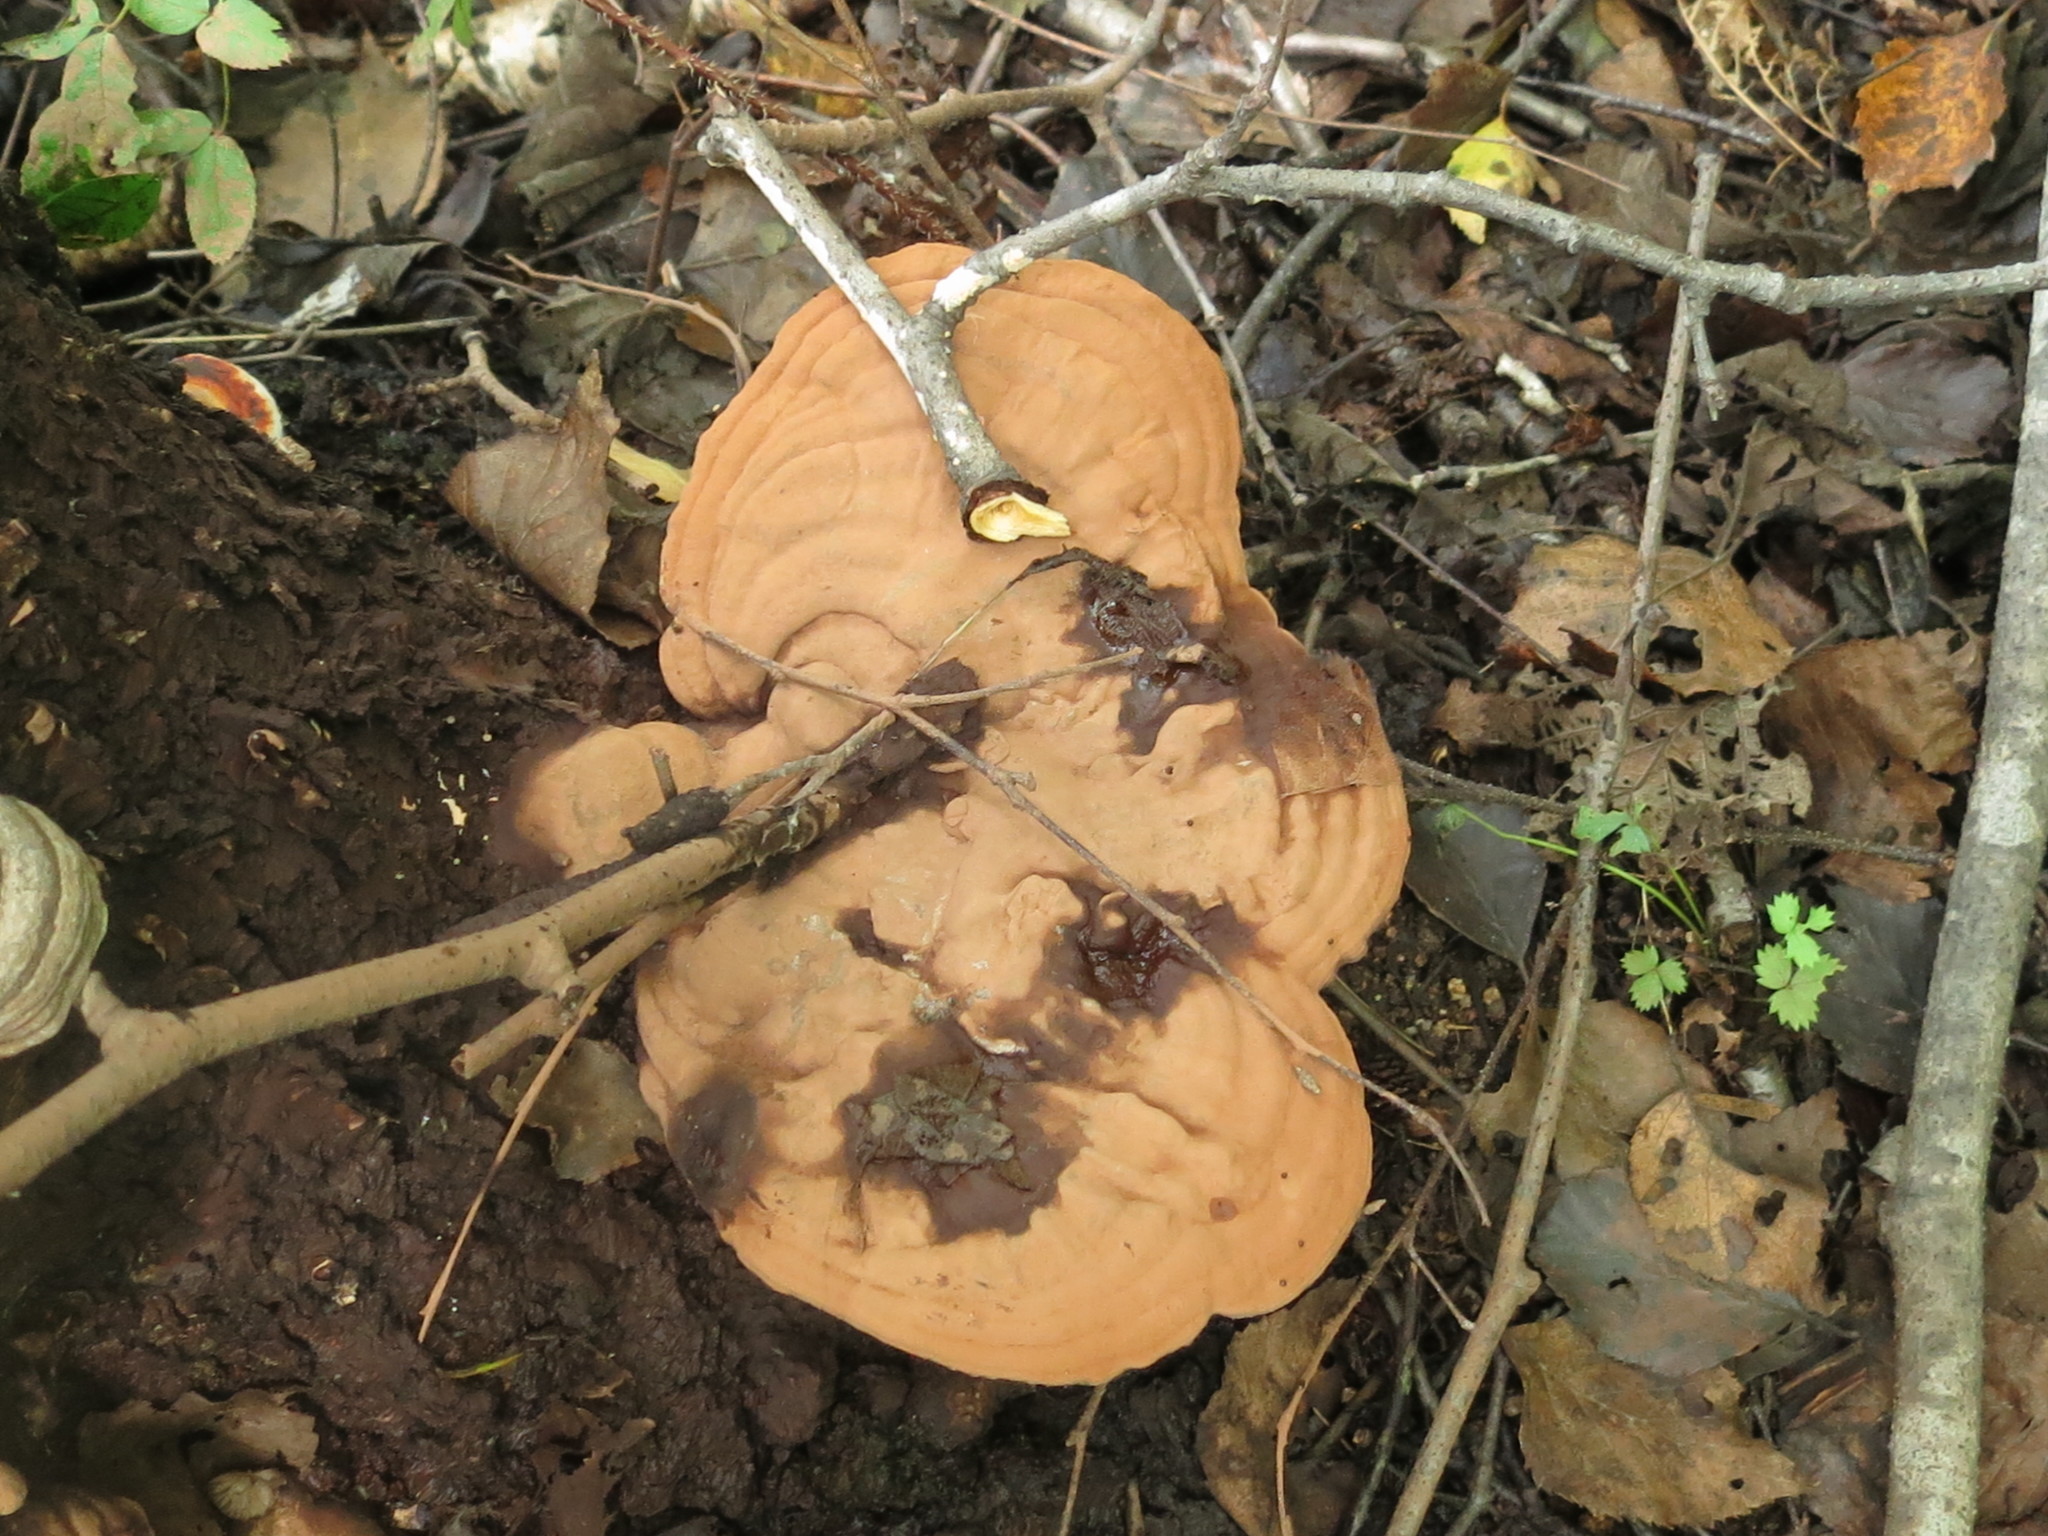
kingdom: Fungi
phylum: Basidiomycota
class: Agaricomycetes
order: Polyporales
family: Polyporaceae
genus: Ganoderma
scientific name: Ganoderma applanatum
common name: Artist's bracket
